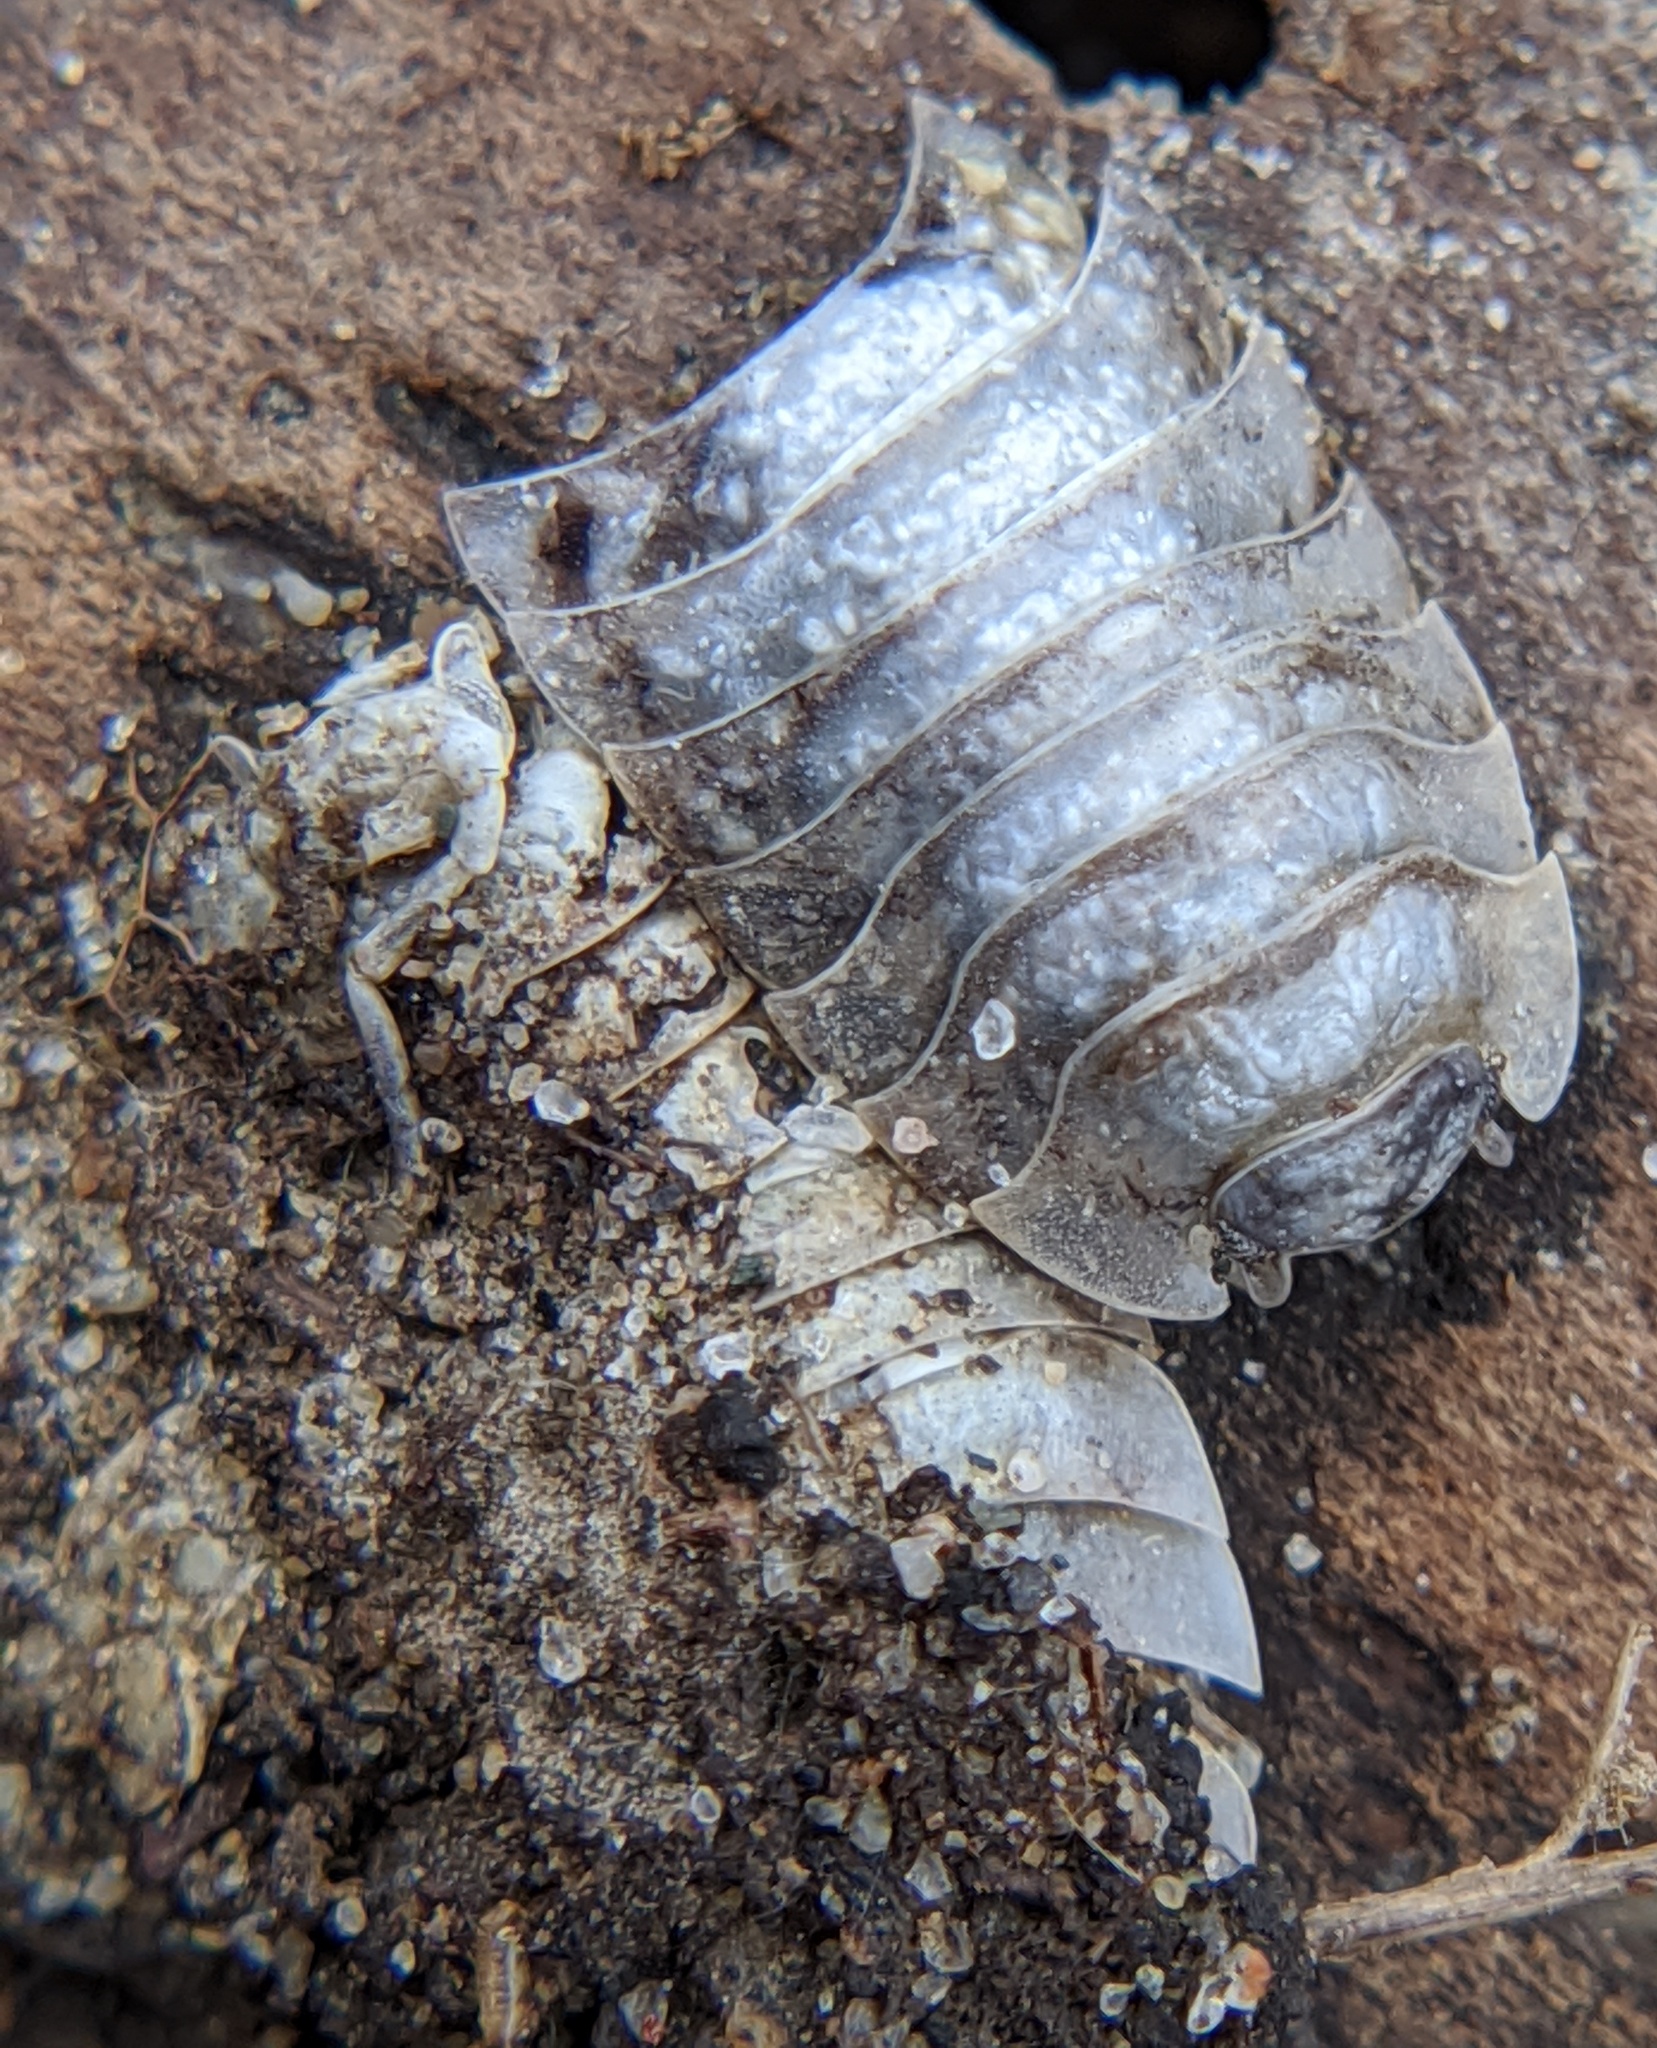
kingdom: Animalia
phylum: Arthropoda
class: Malacostraca
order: Isopoda
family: Oniscidae
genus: Oniscus
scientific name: Oniscus asellus
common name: Common shiny woodlouse
